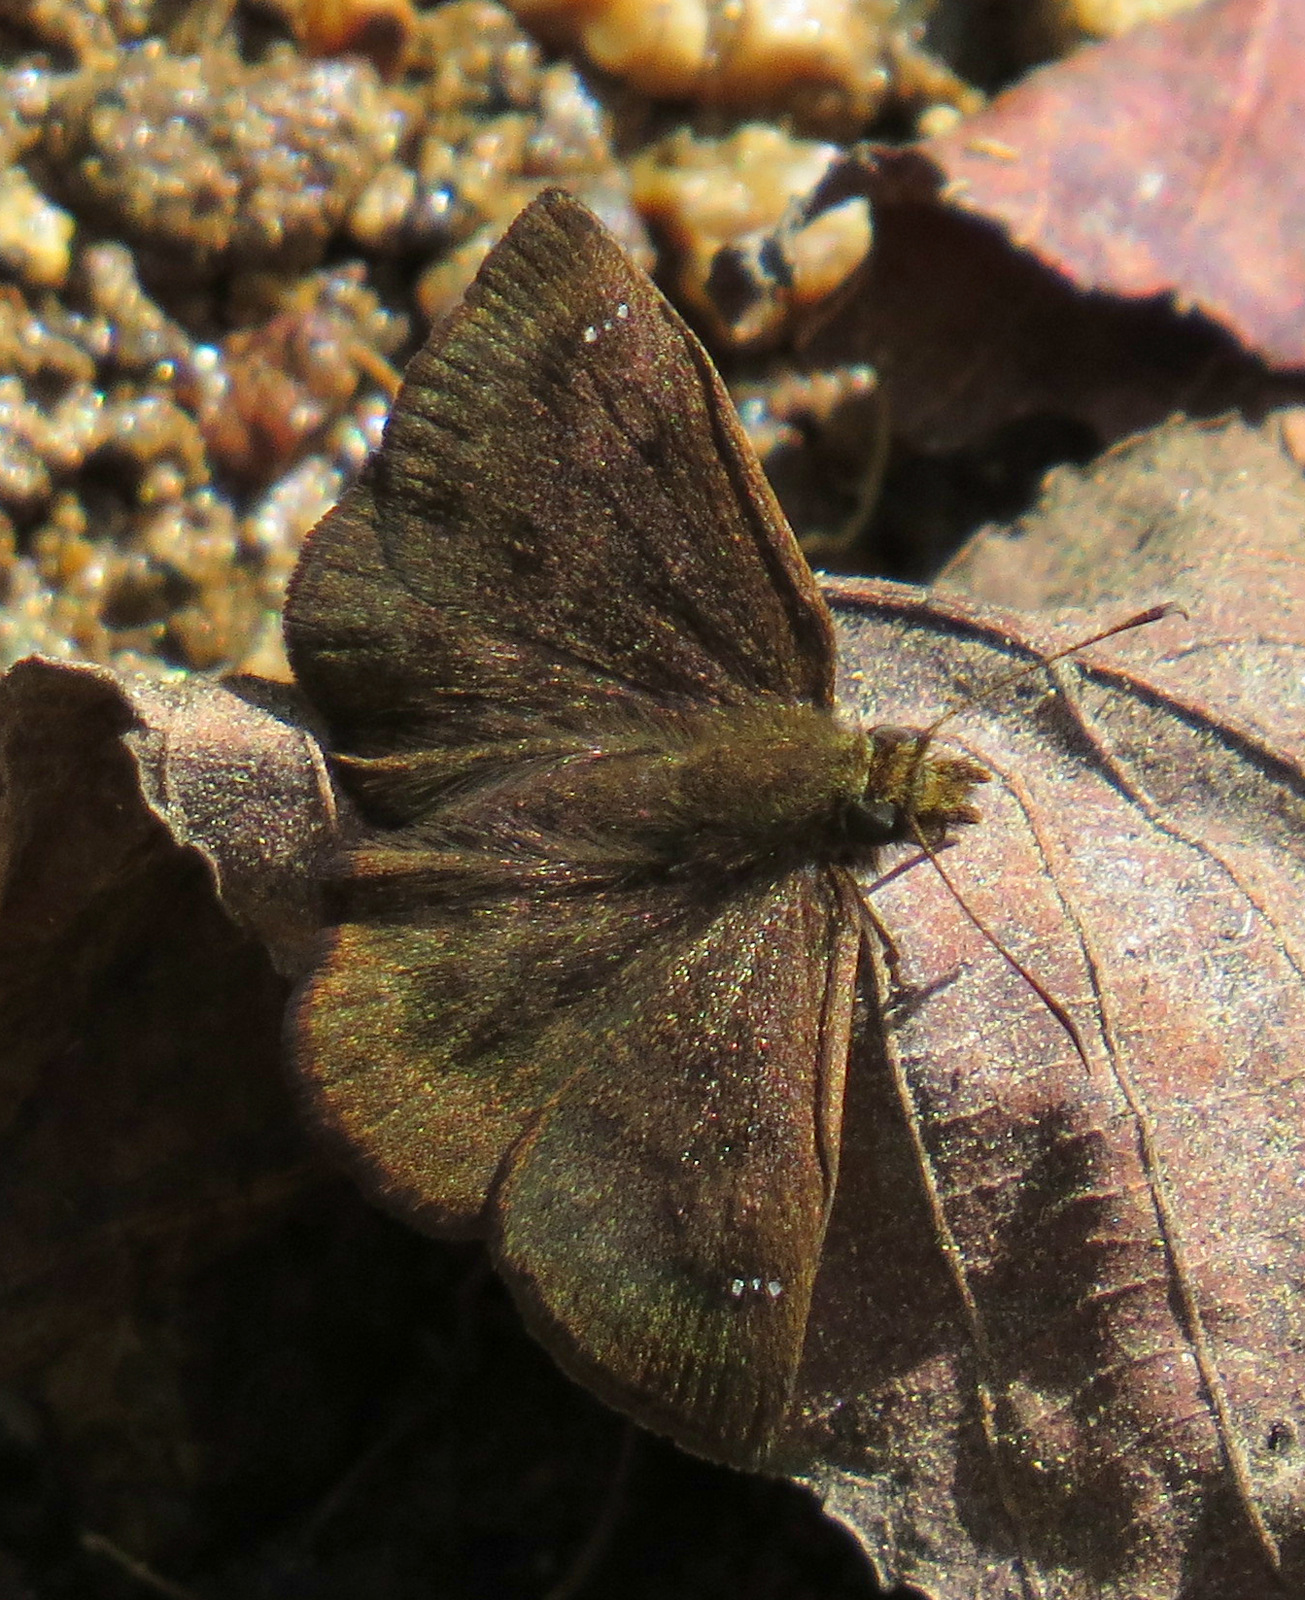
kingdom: Animalia
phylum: Arthropoda
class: Insecta
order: Lepidoptera
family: Hesperiidae
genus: Bolla
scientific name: Bolla tetra
